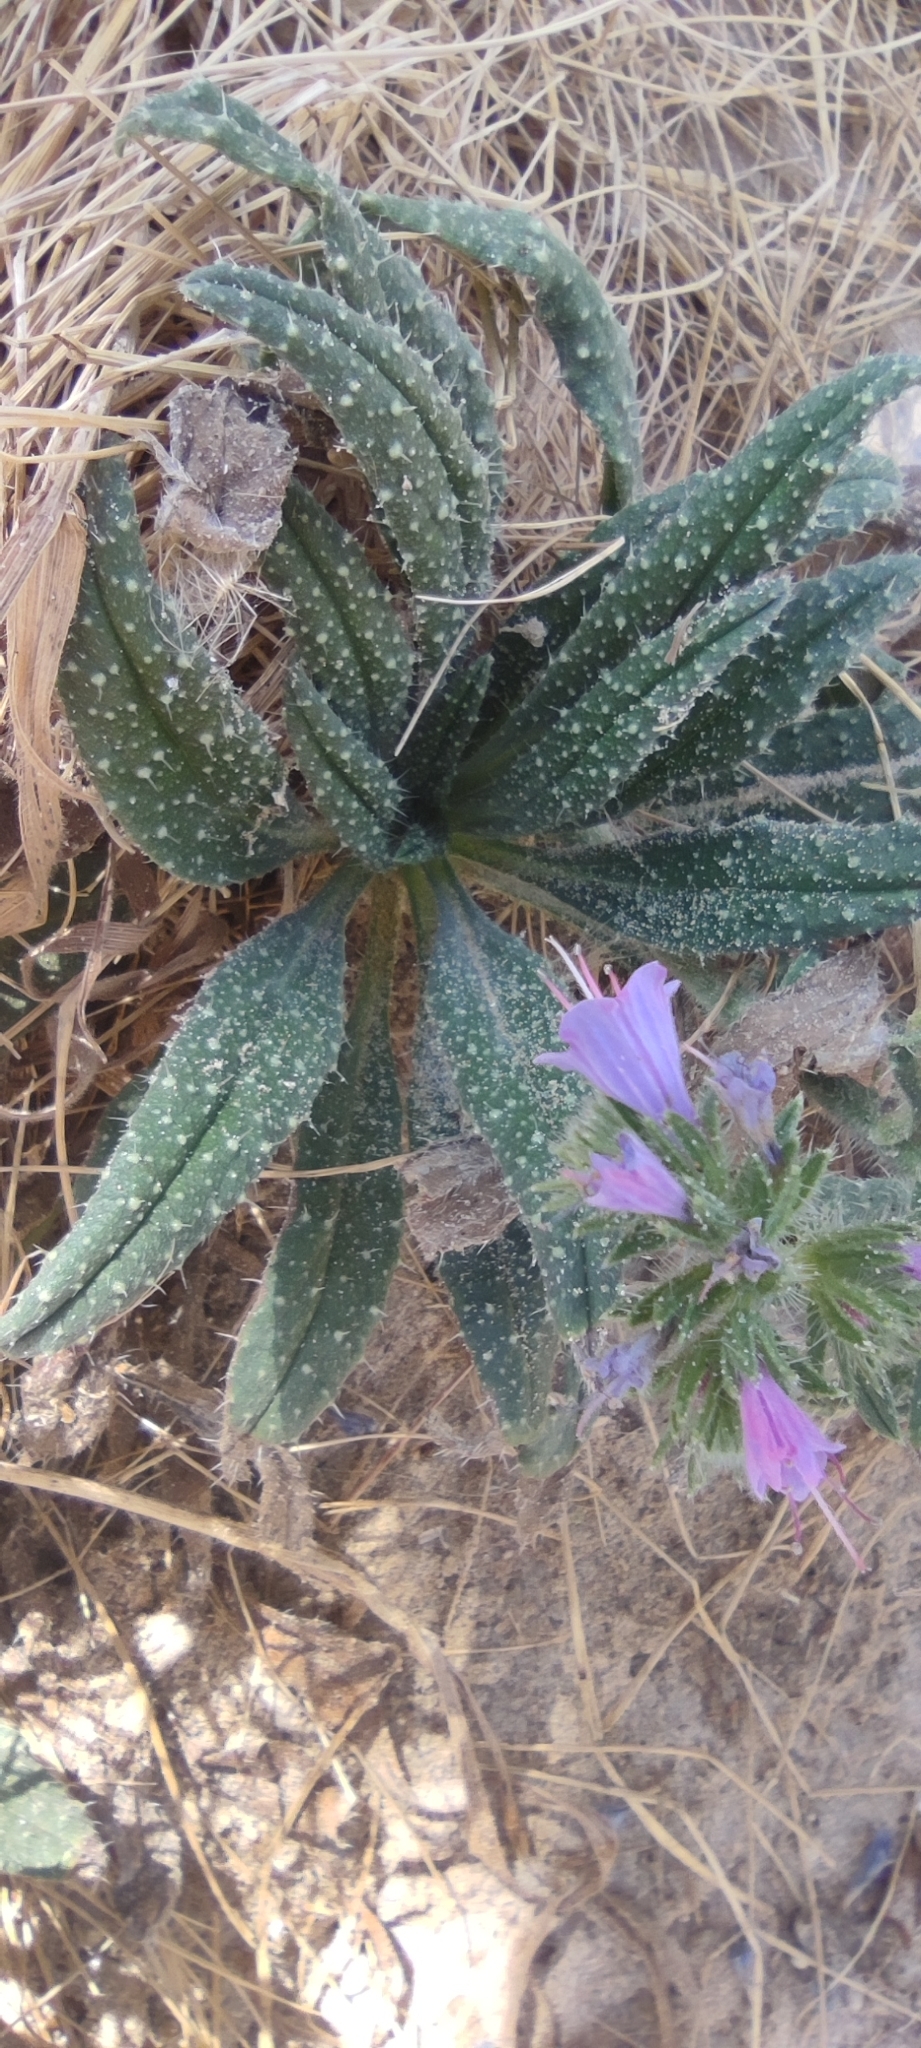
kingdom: Plantae
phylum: Tracheophyta
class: Magnoliopsida
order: Boraginales
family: Boraginaceae
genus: Echium
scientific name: Echium gaditanum
